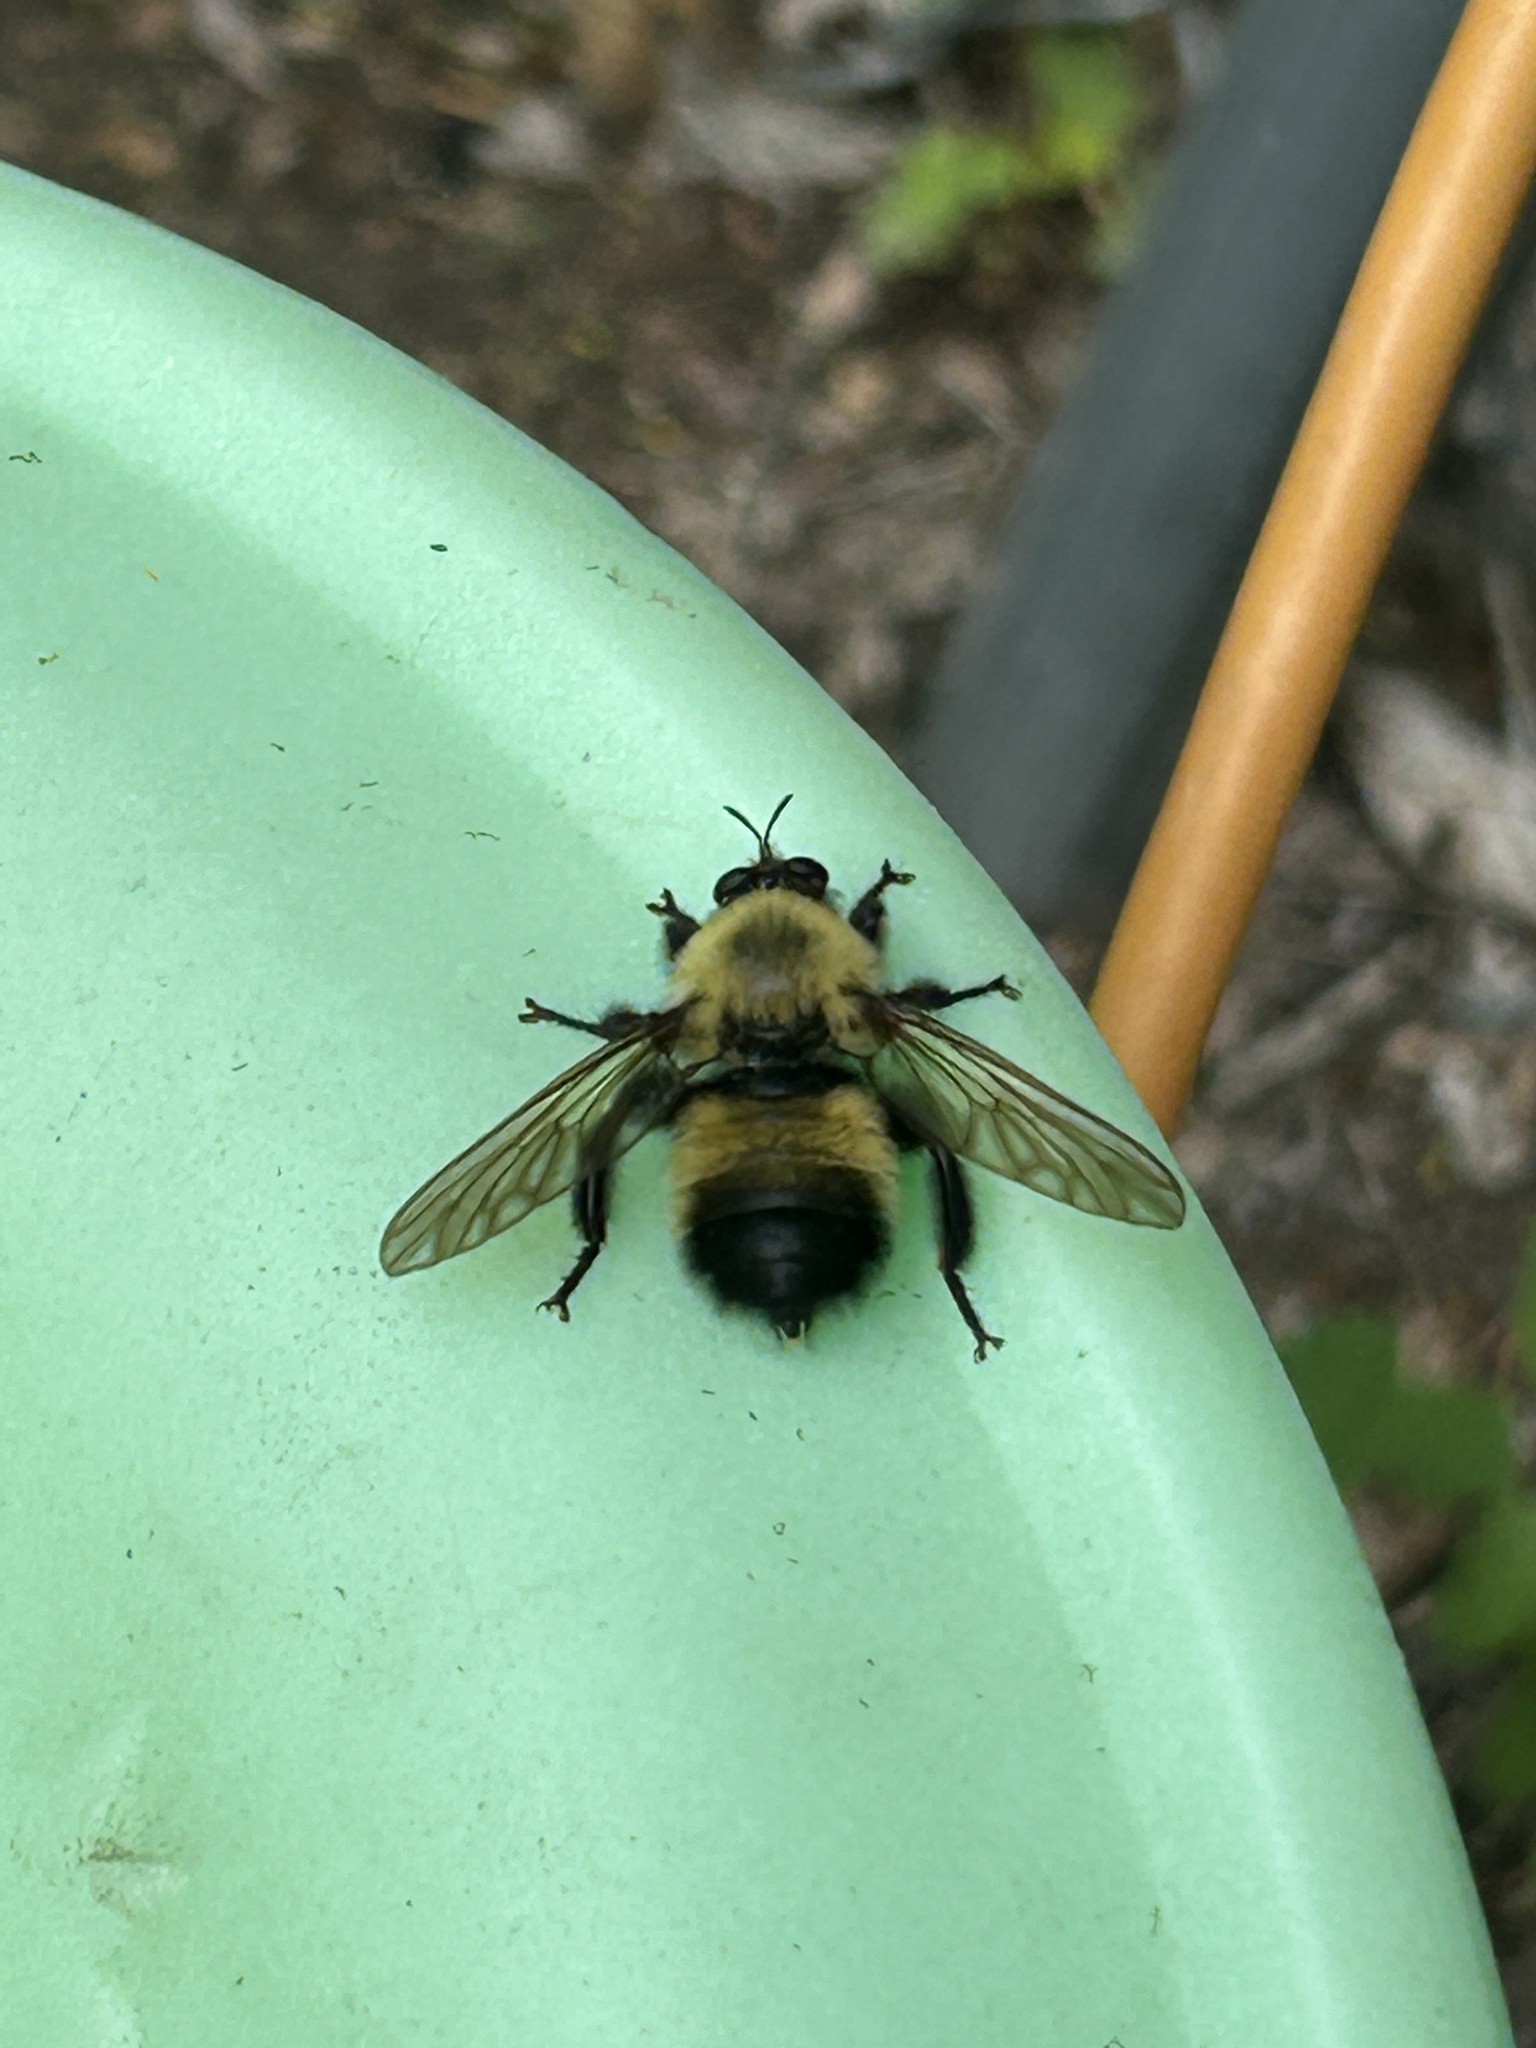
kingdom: Animalia
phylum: Arthropoda
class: Insecta
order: Diptera
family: Asilidae
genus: Laphria
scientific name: Laphria thoracica
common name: Bumble bee mimic robber fly
